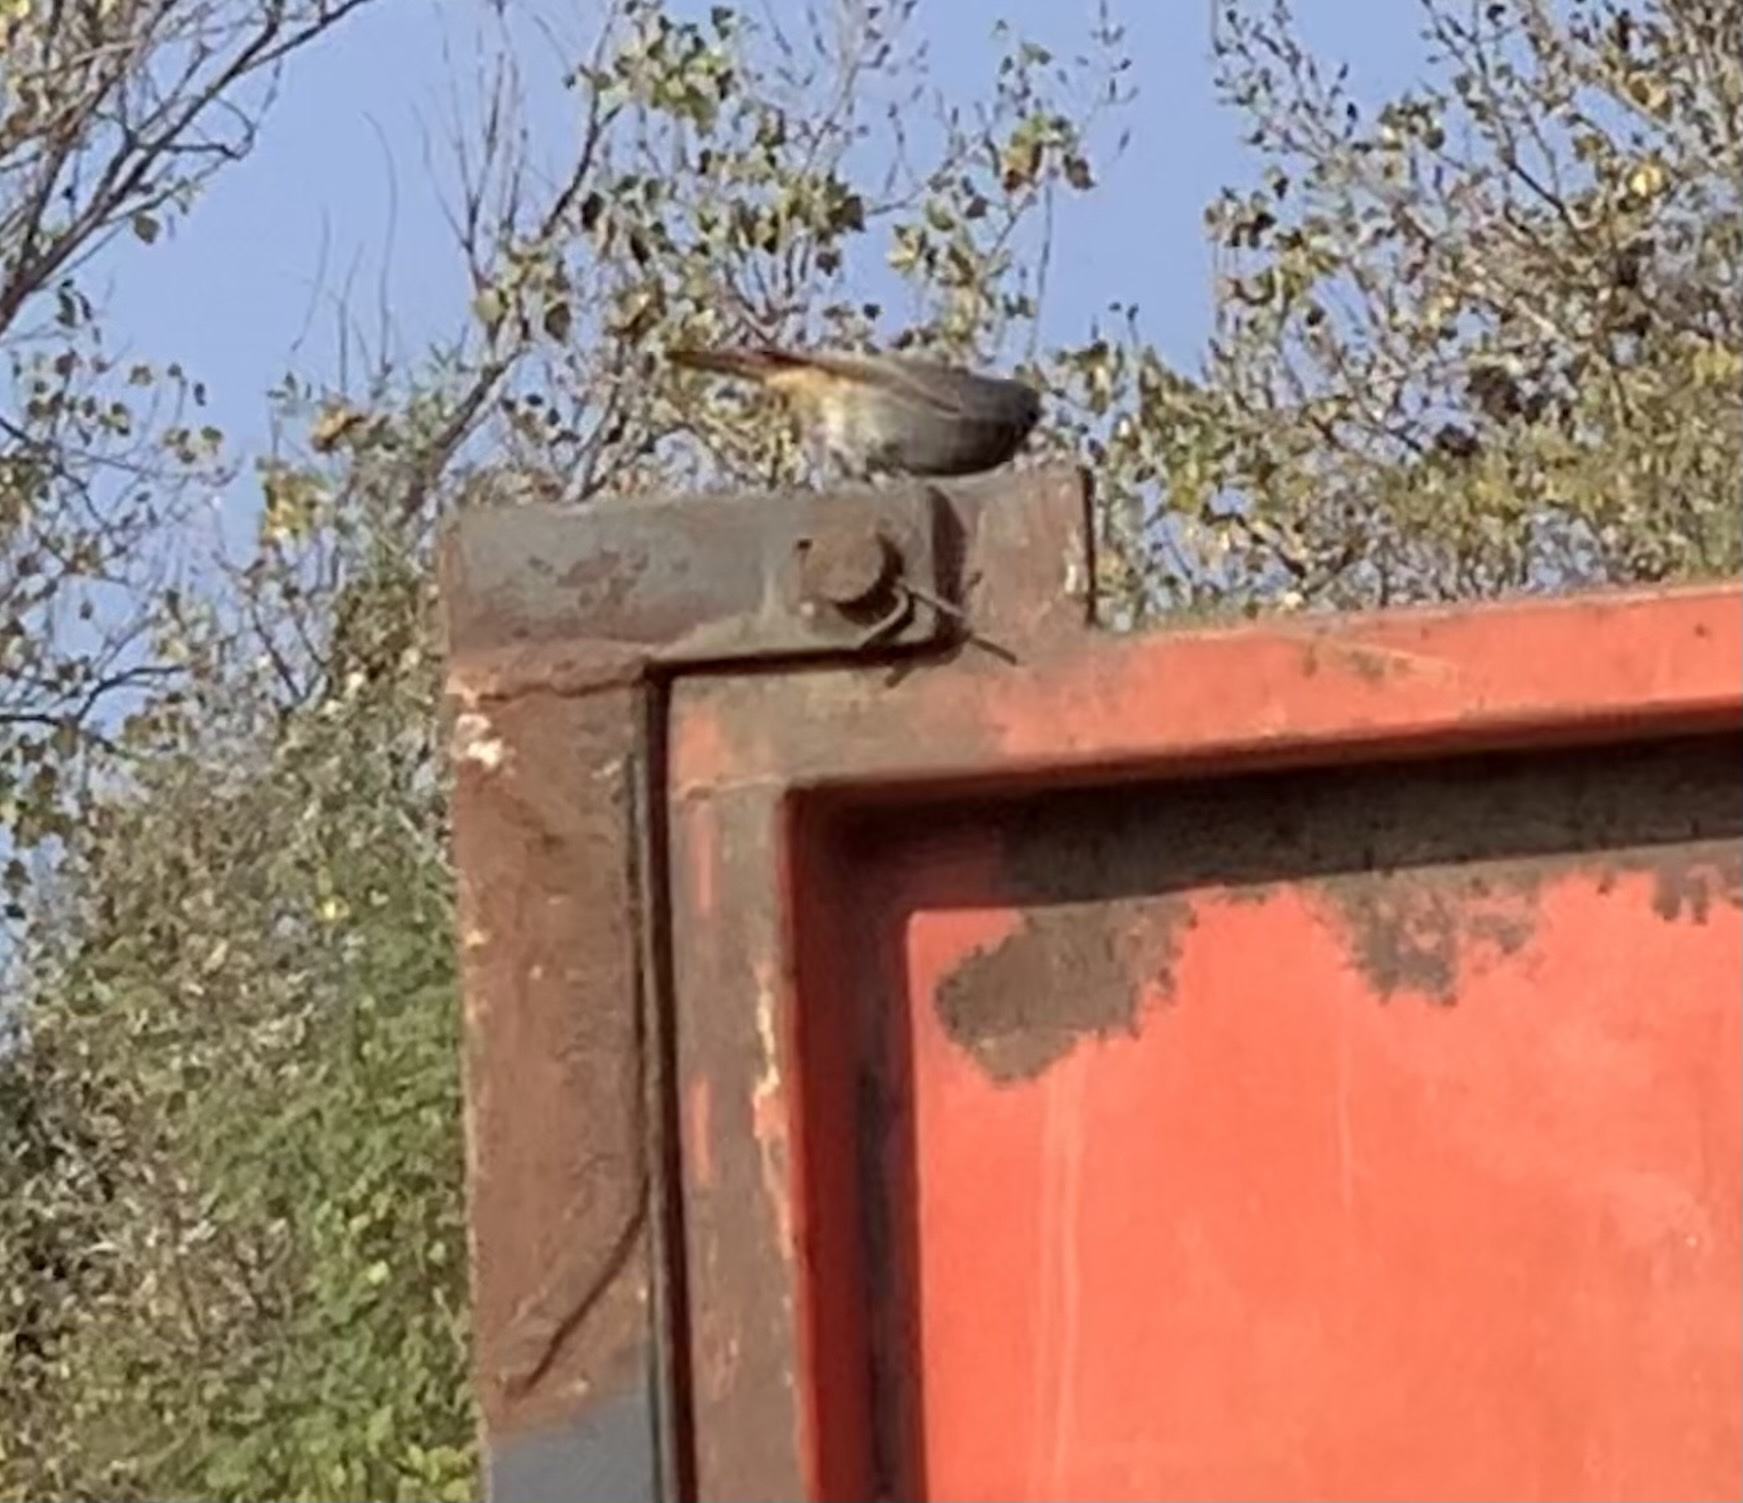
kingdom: Animalia
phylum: Chordata
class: Aves
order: Passeriformes
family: Muscicapidae
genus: Phoenicurus
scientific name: Phoenicurus ochruros
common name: Black redstart
